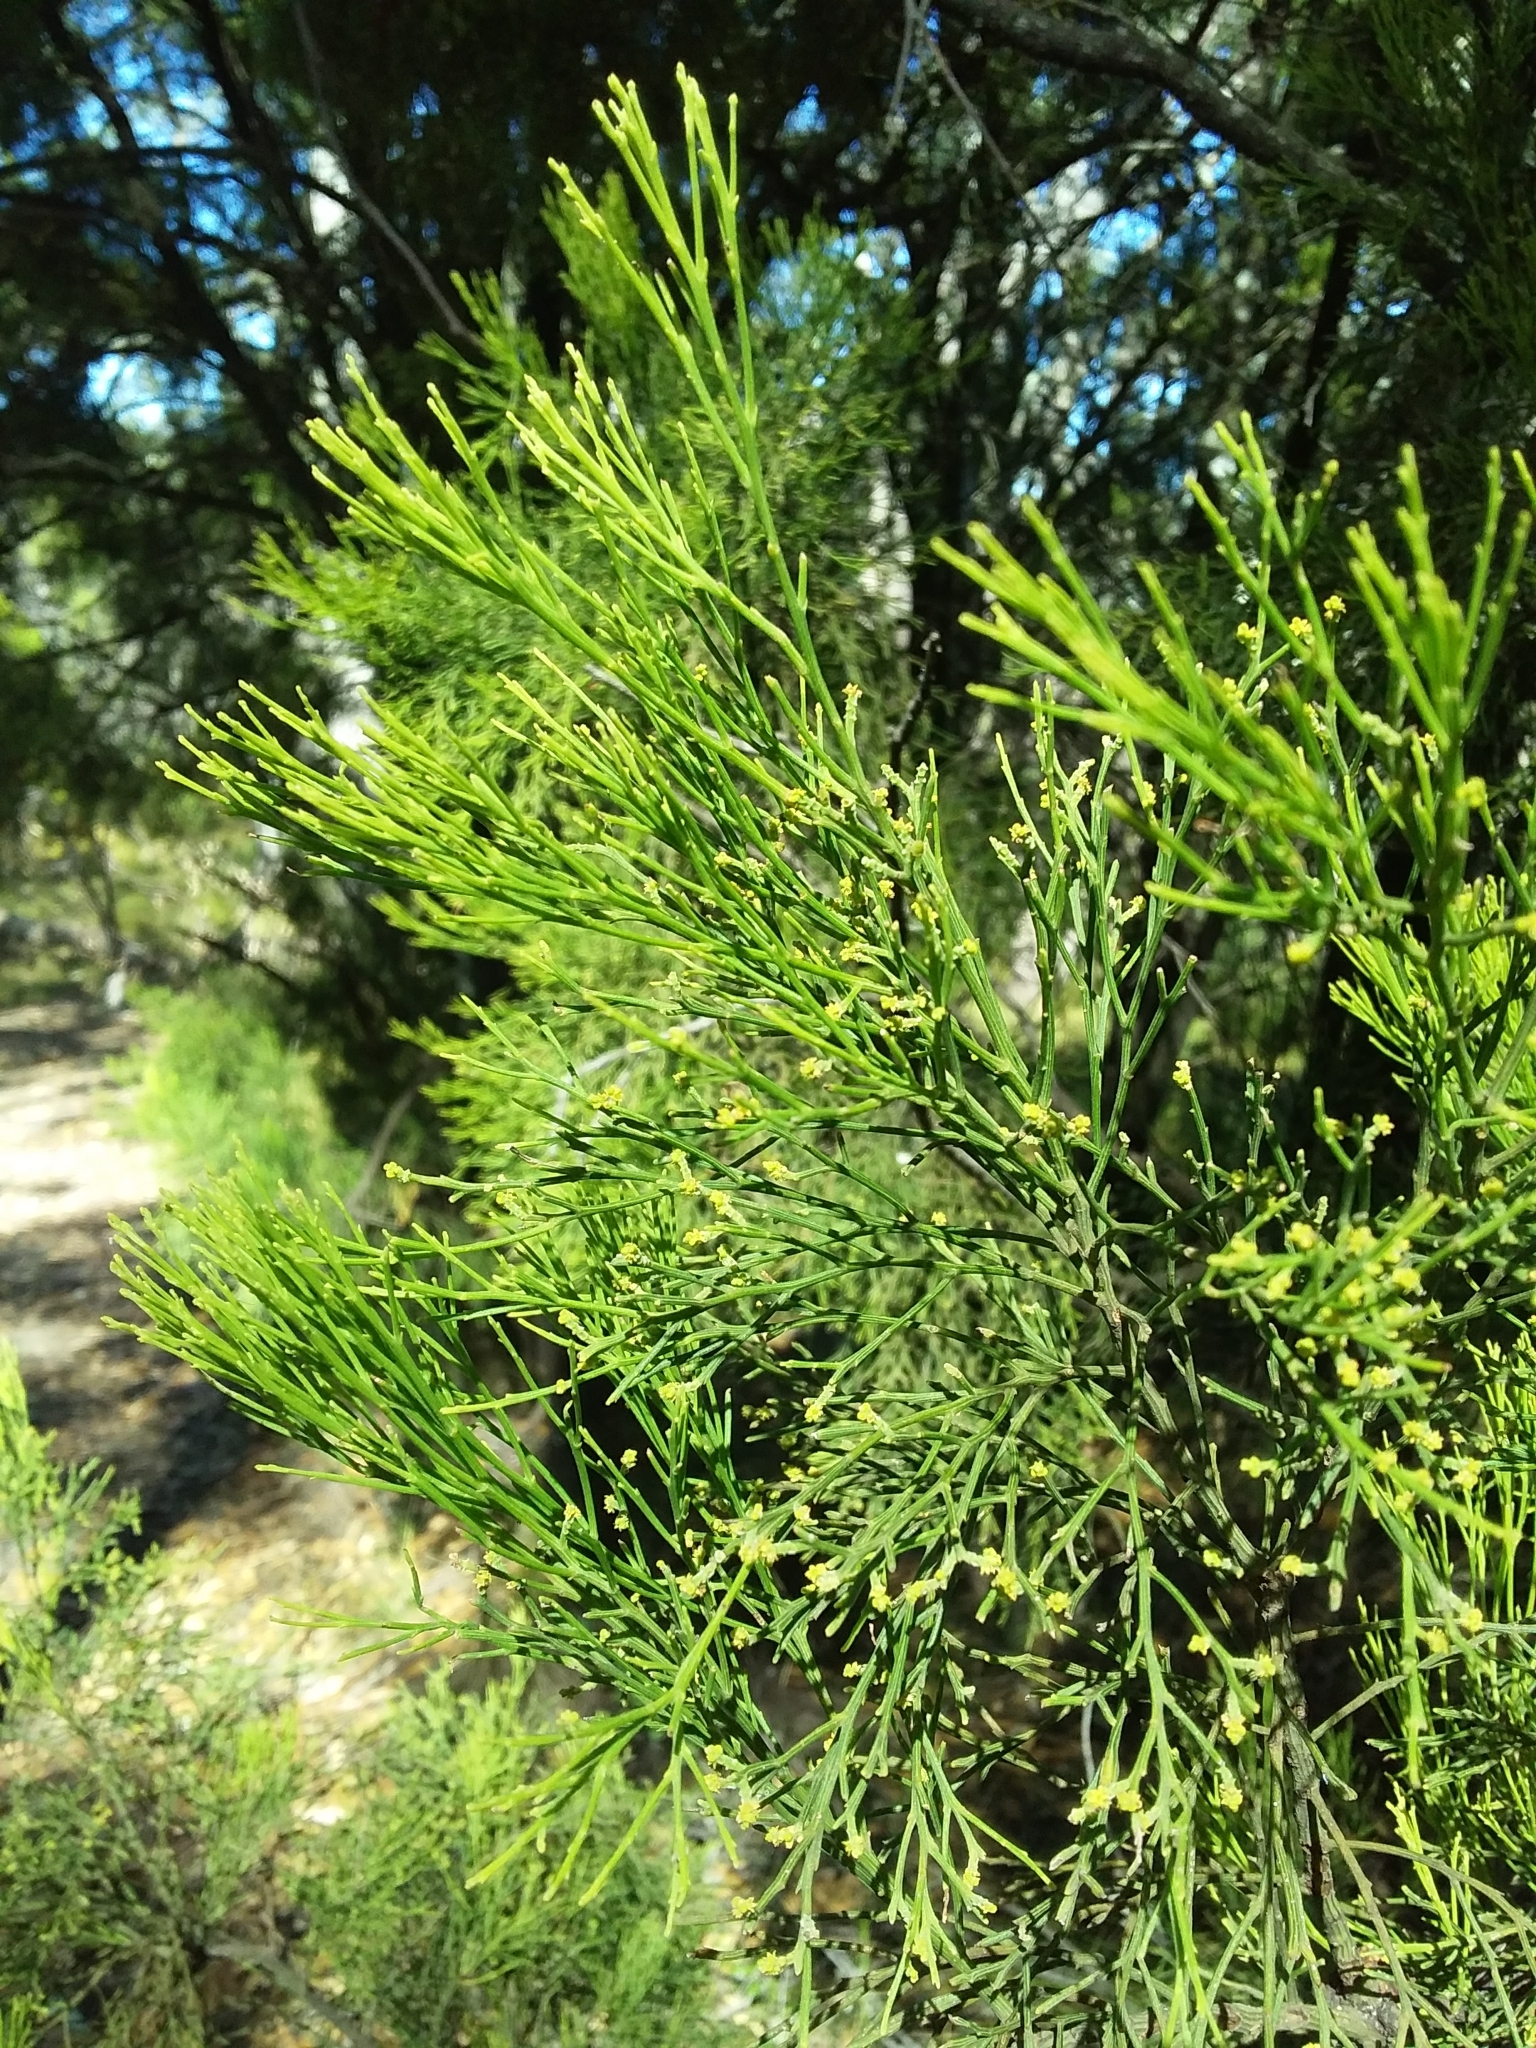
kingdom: Plantae
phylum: Tracheophyta
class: Magnoliopsida
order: Santalales
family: Santalaceae
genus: Exocarpos
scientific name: Exocarpos cupressiformis
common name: Cherry ballart
